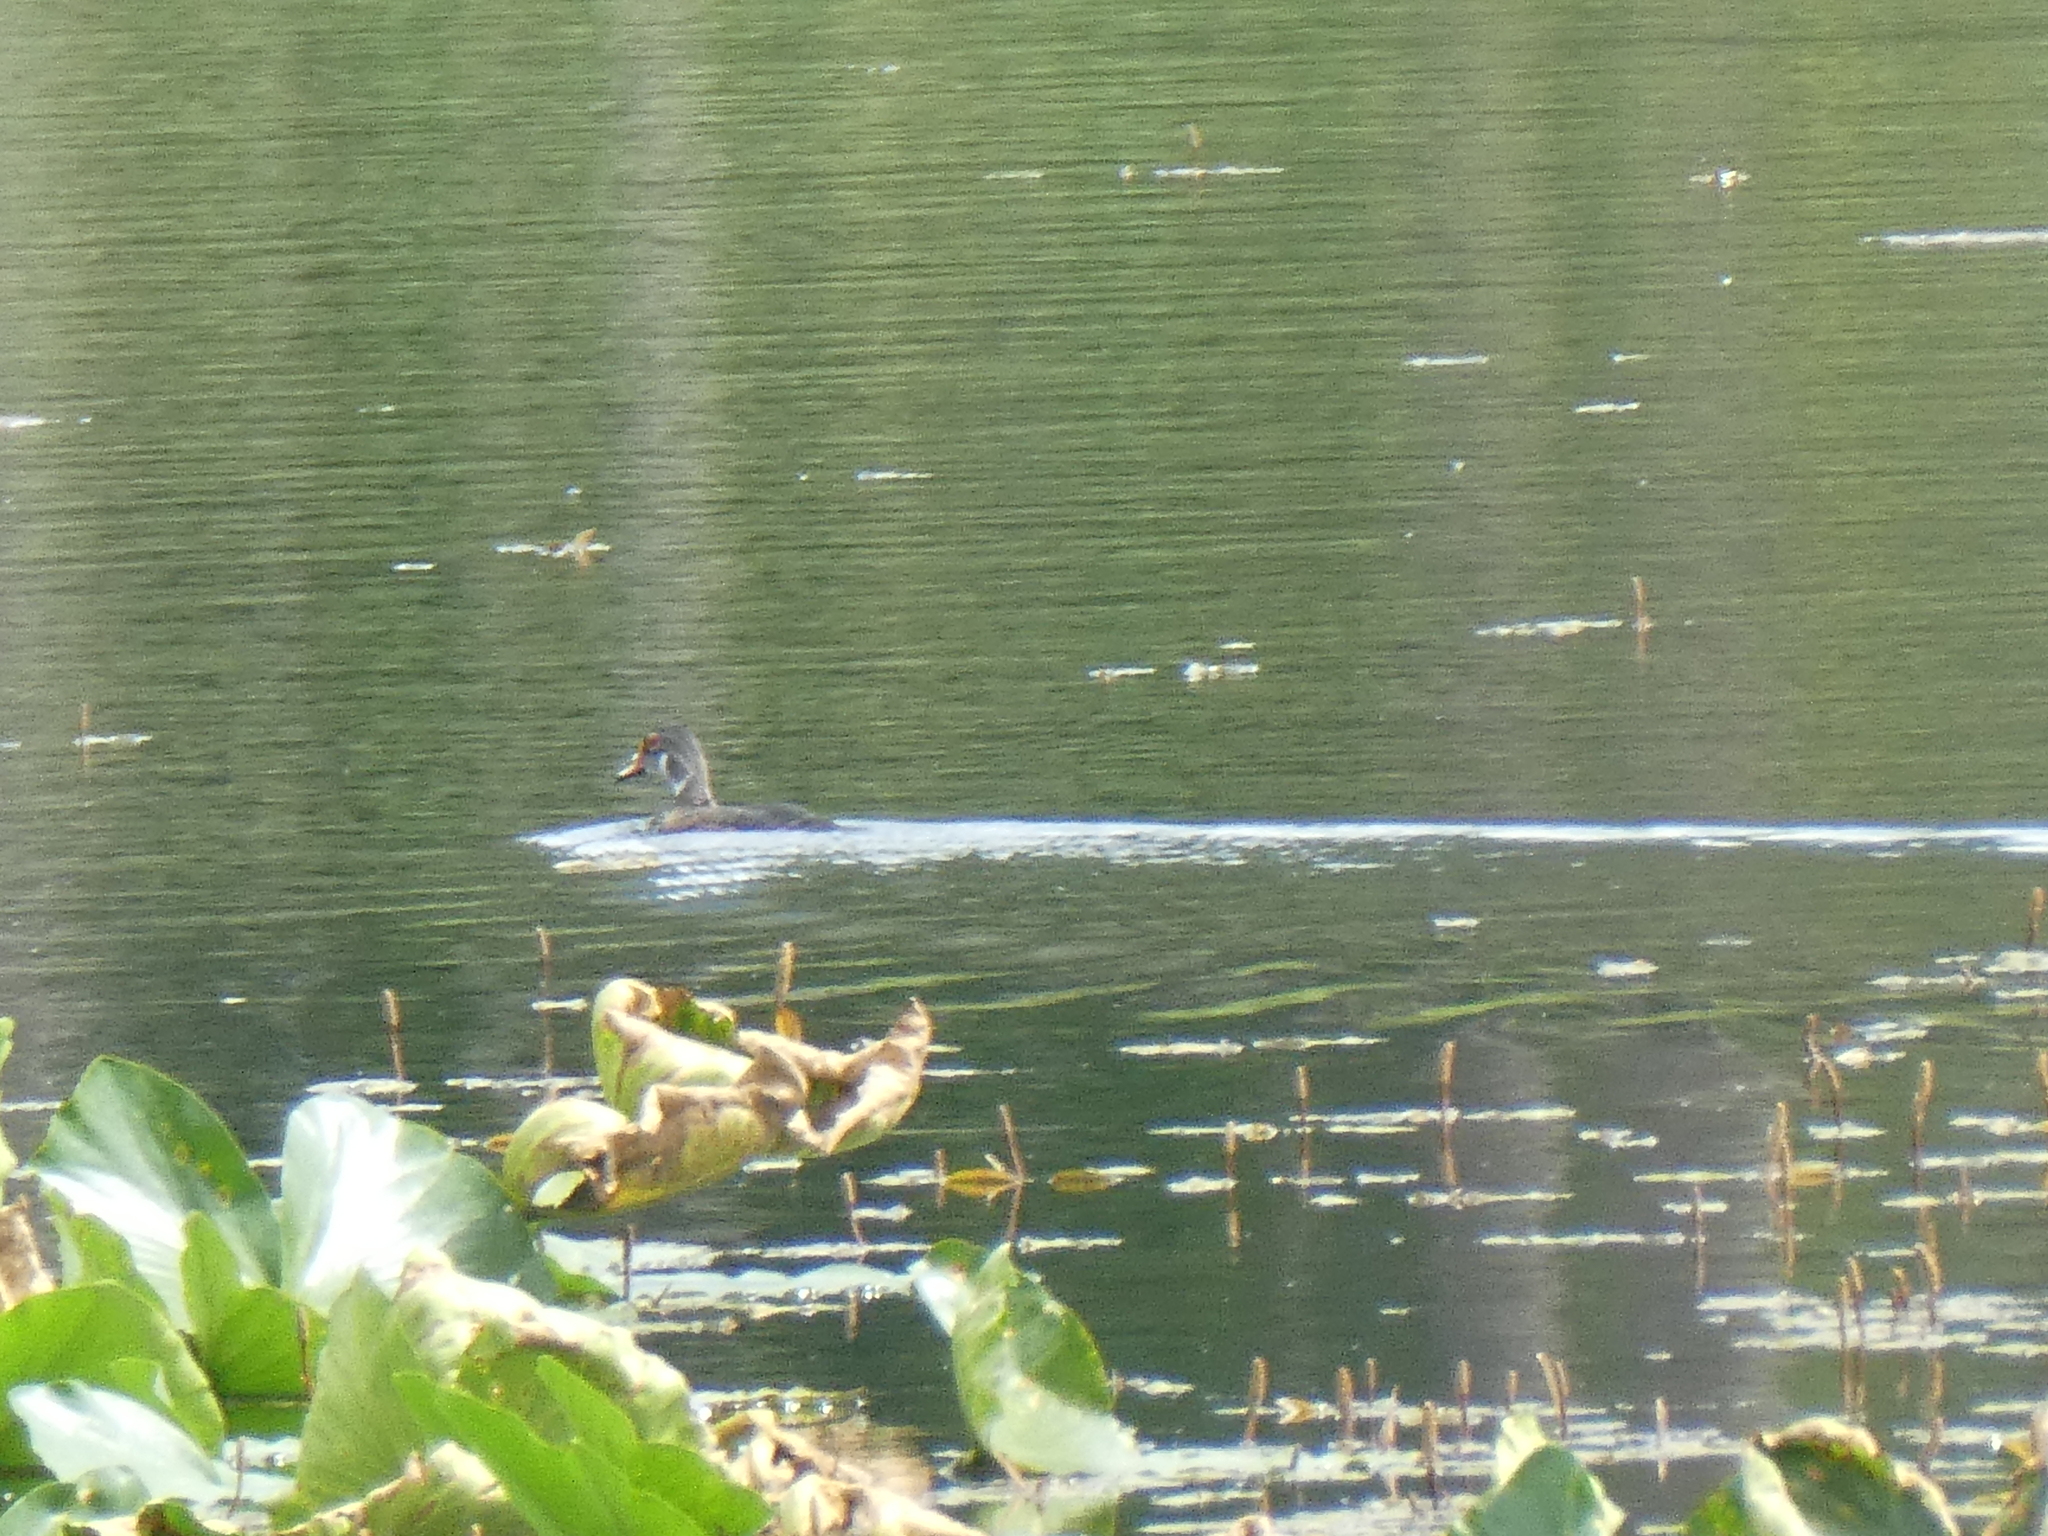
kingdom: Animalia
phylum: Chordata
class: Aves
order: Anseriformes
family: Anatidae
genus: Aix
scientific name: Aix sponsa
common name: Wood duck
